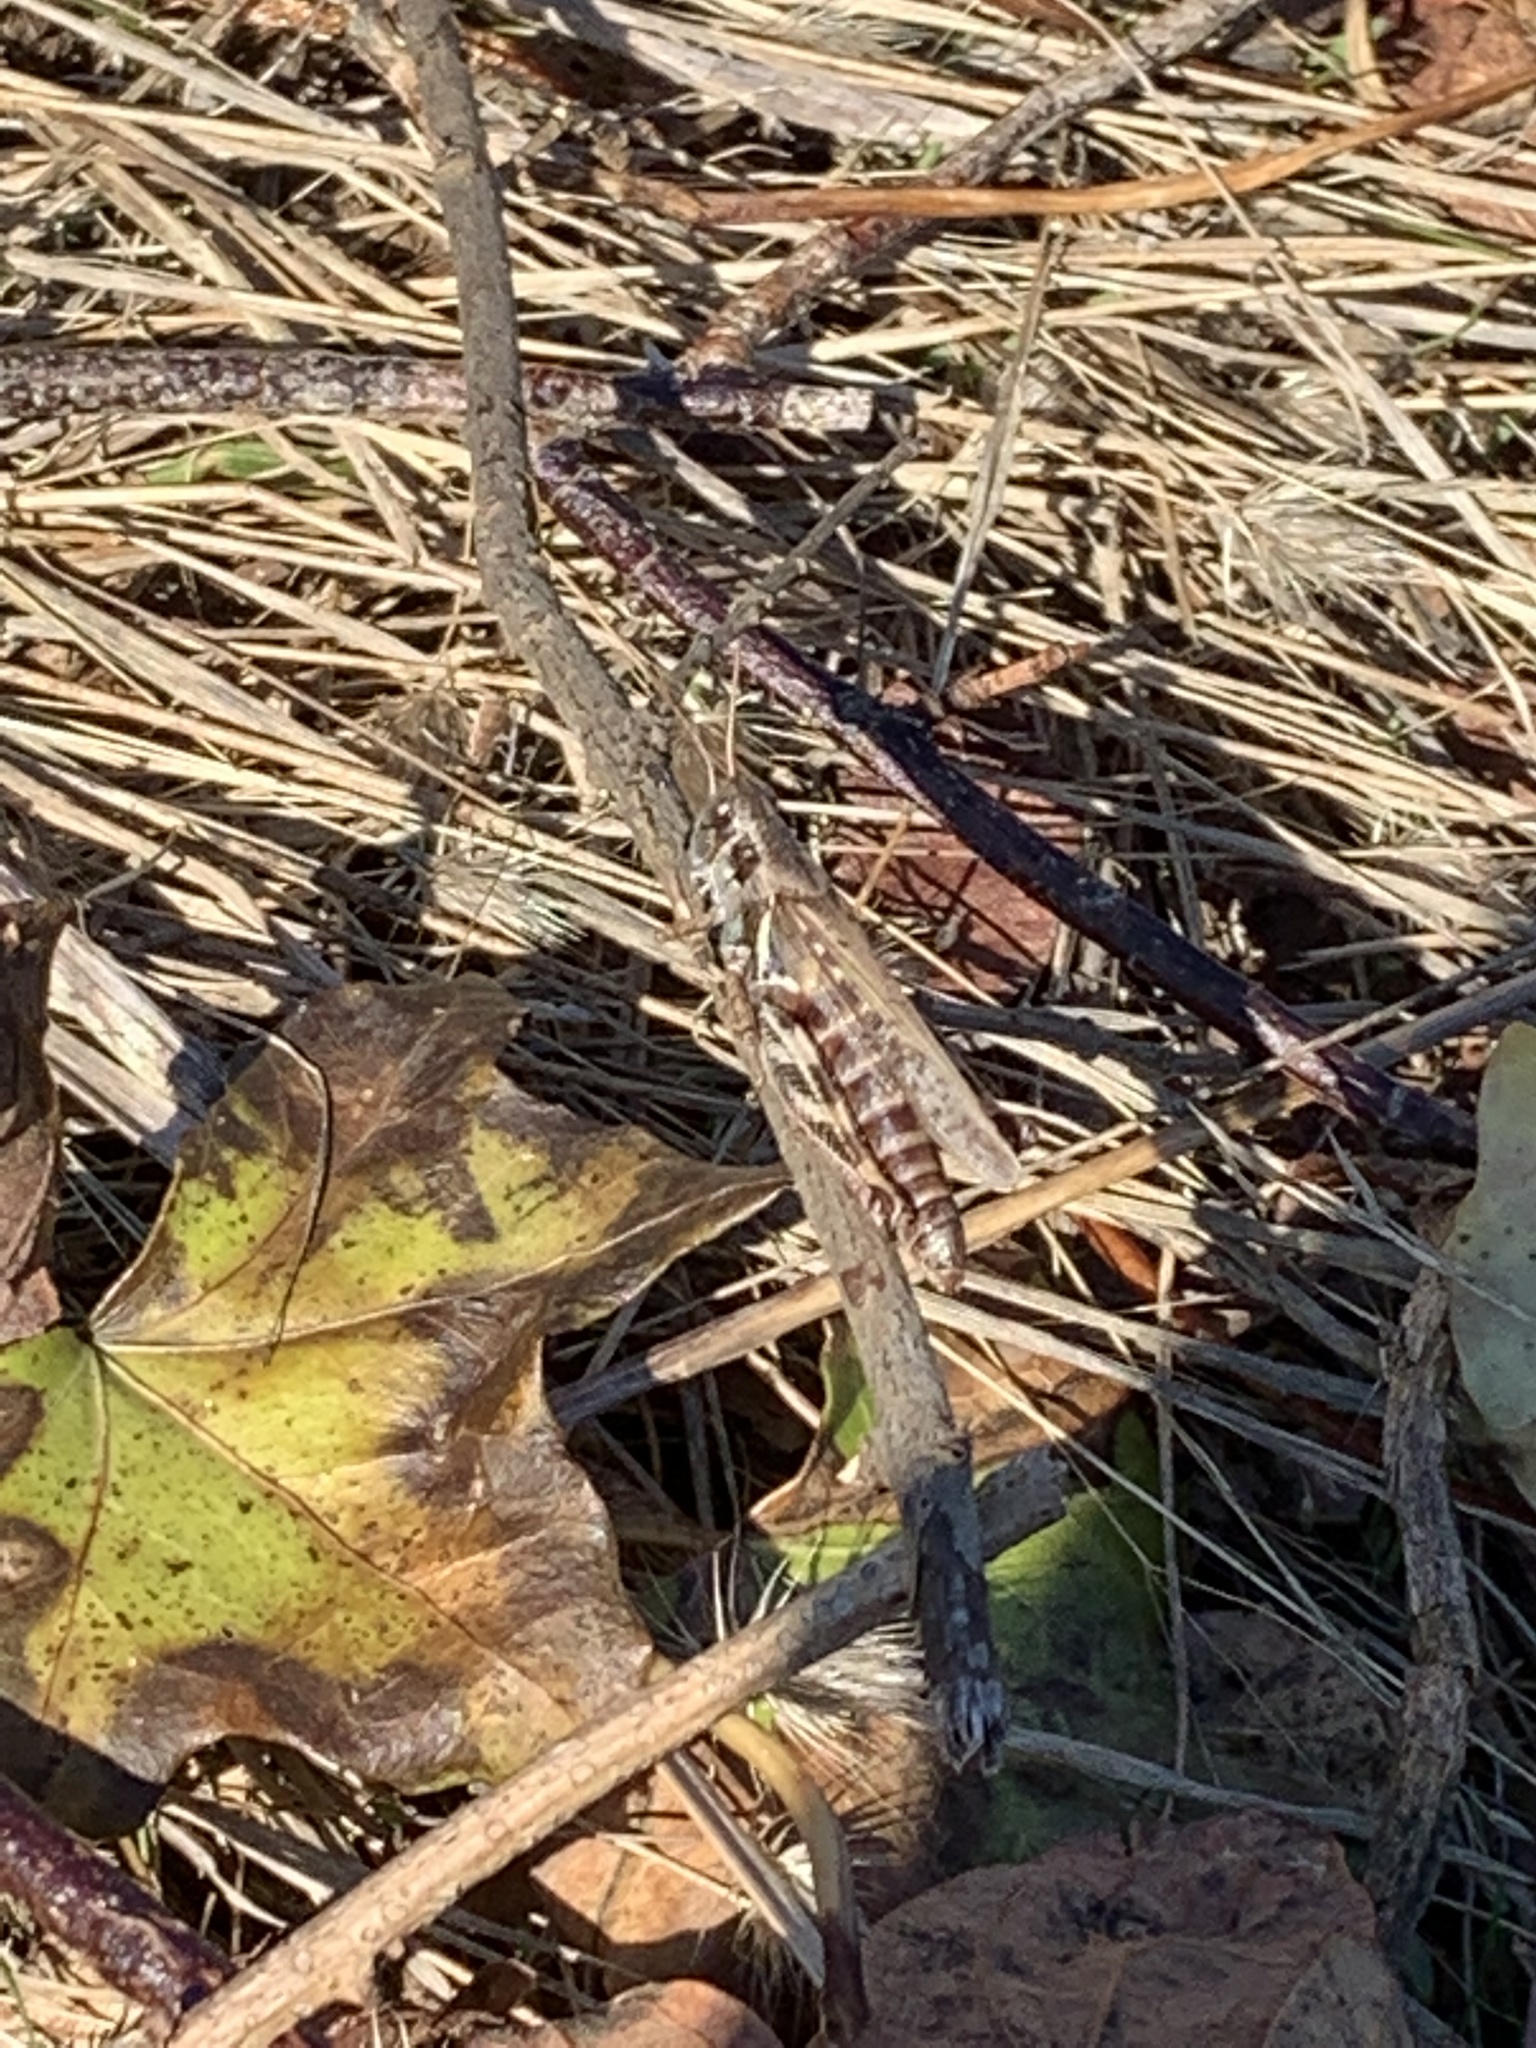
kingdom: Animalia
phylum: Arthropoda
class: Insecta
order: Orthoptera
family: Acrididae
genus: Melanoplus
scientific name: Melanoplus sanguinipes
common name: Migratory grasshopper
